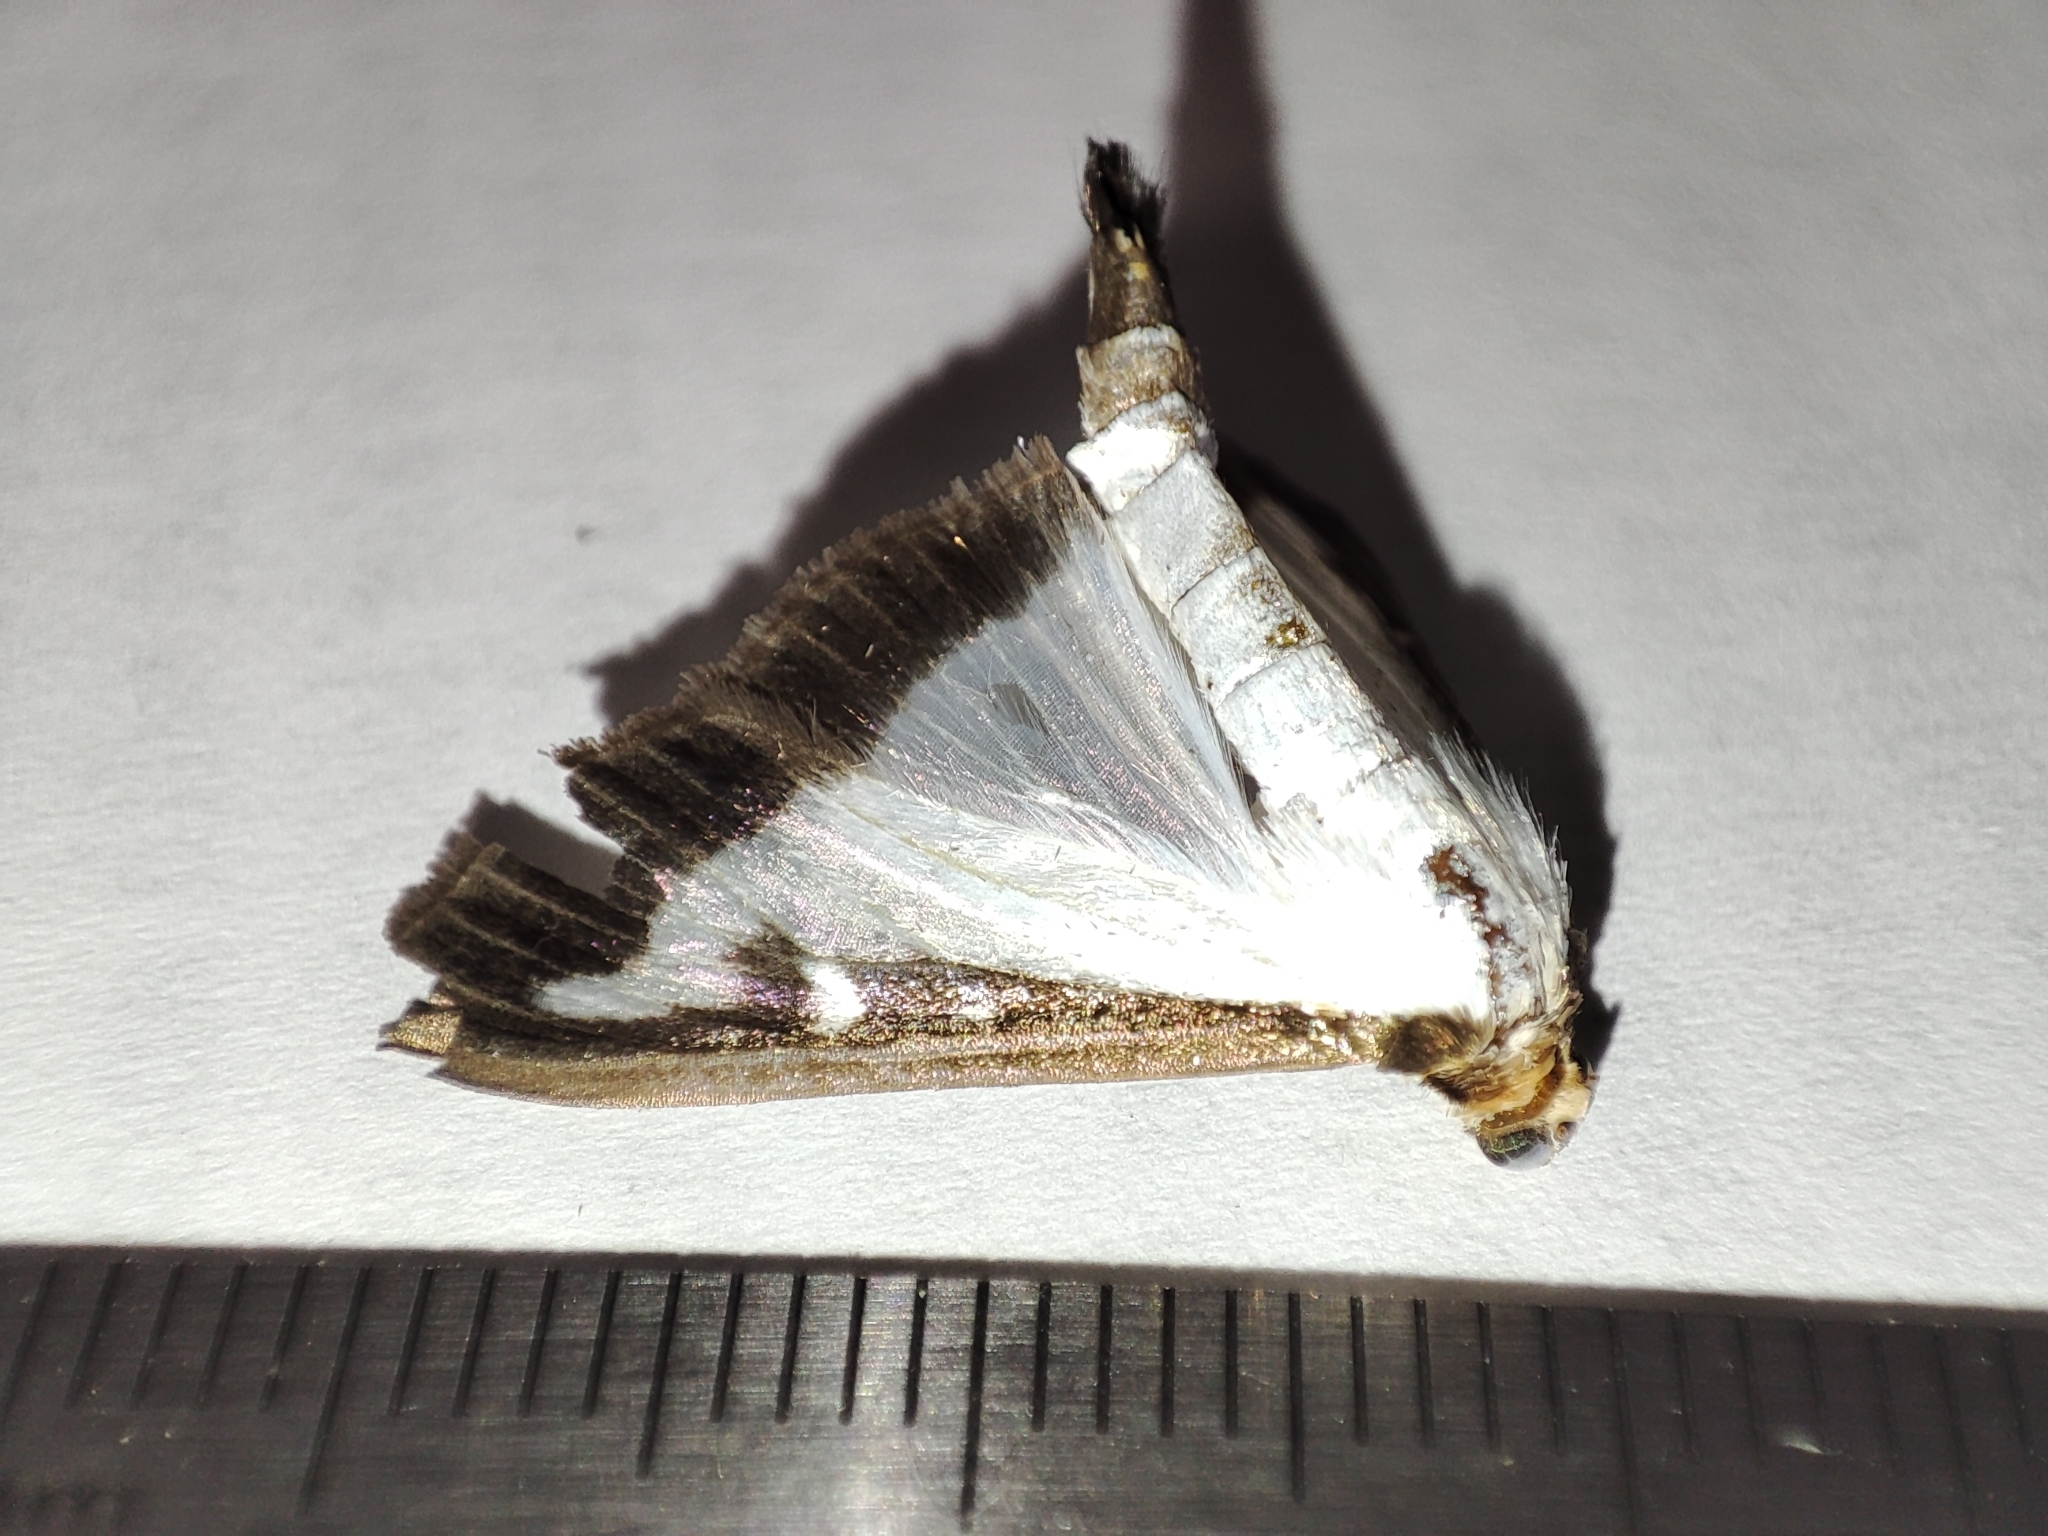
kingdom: Animalia
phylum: Arthropoda
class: Insecta
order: Lepidoptera
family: Crambidae
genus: Cydalima
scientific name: Cydalima perspectalis
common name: Box tree moth
